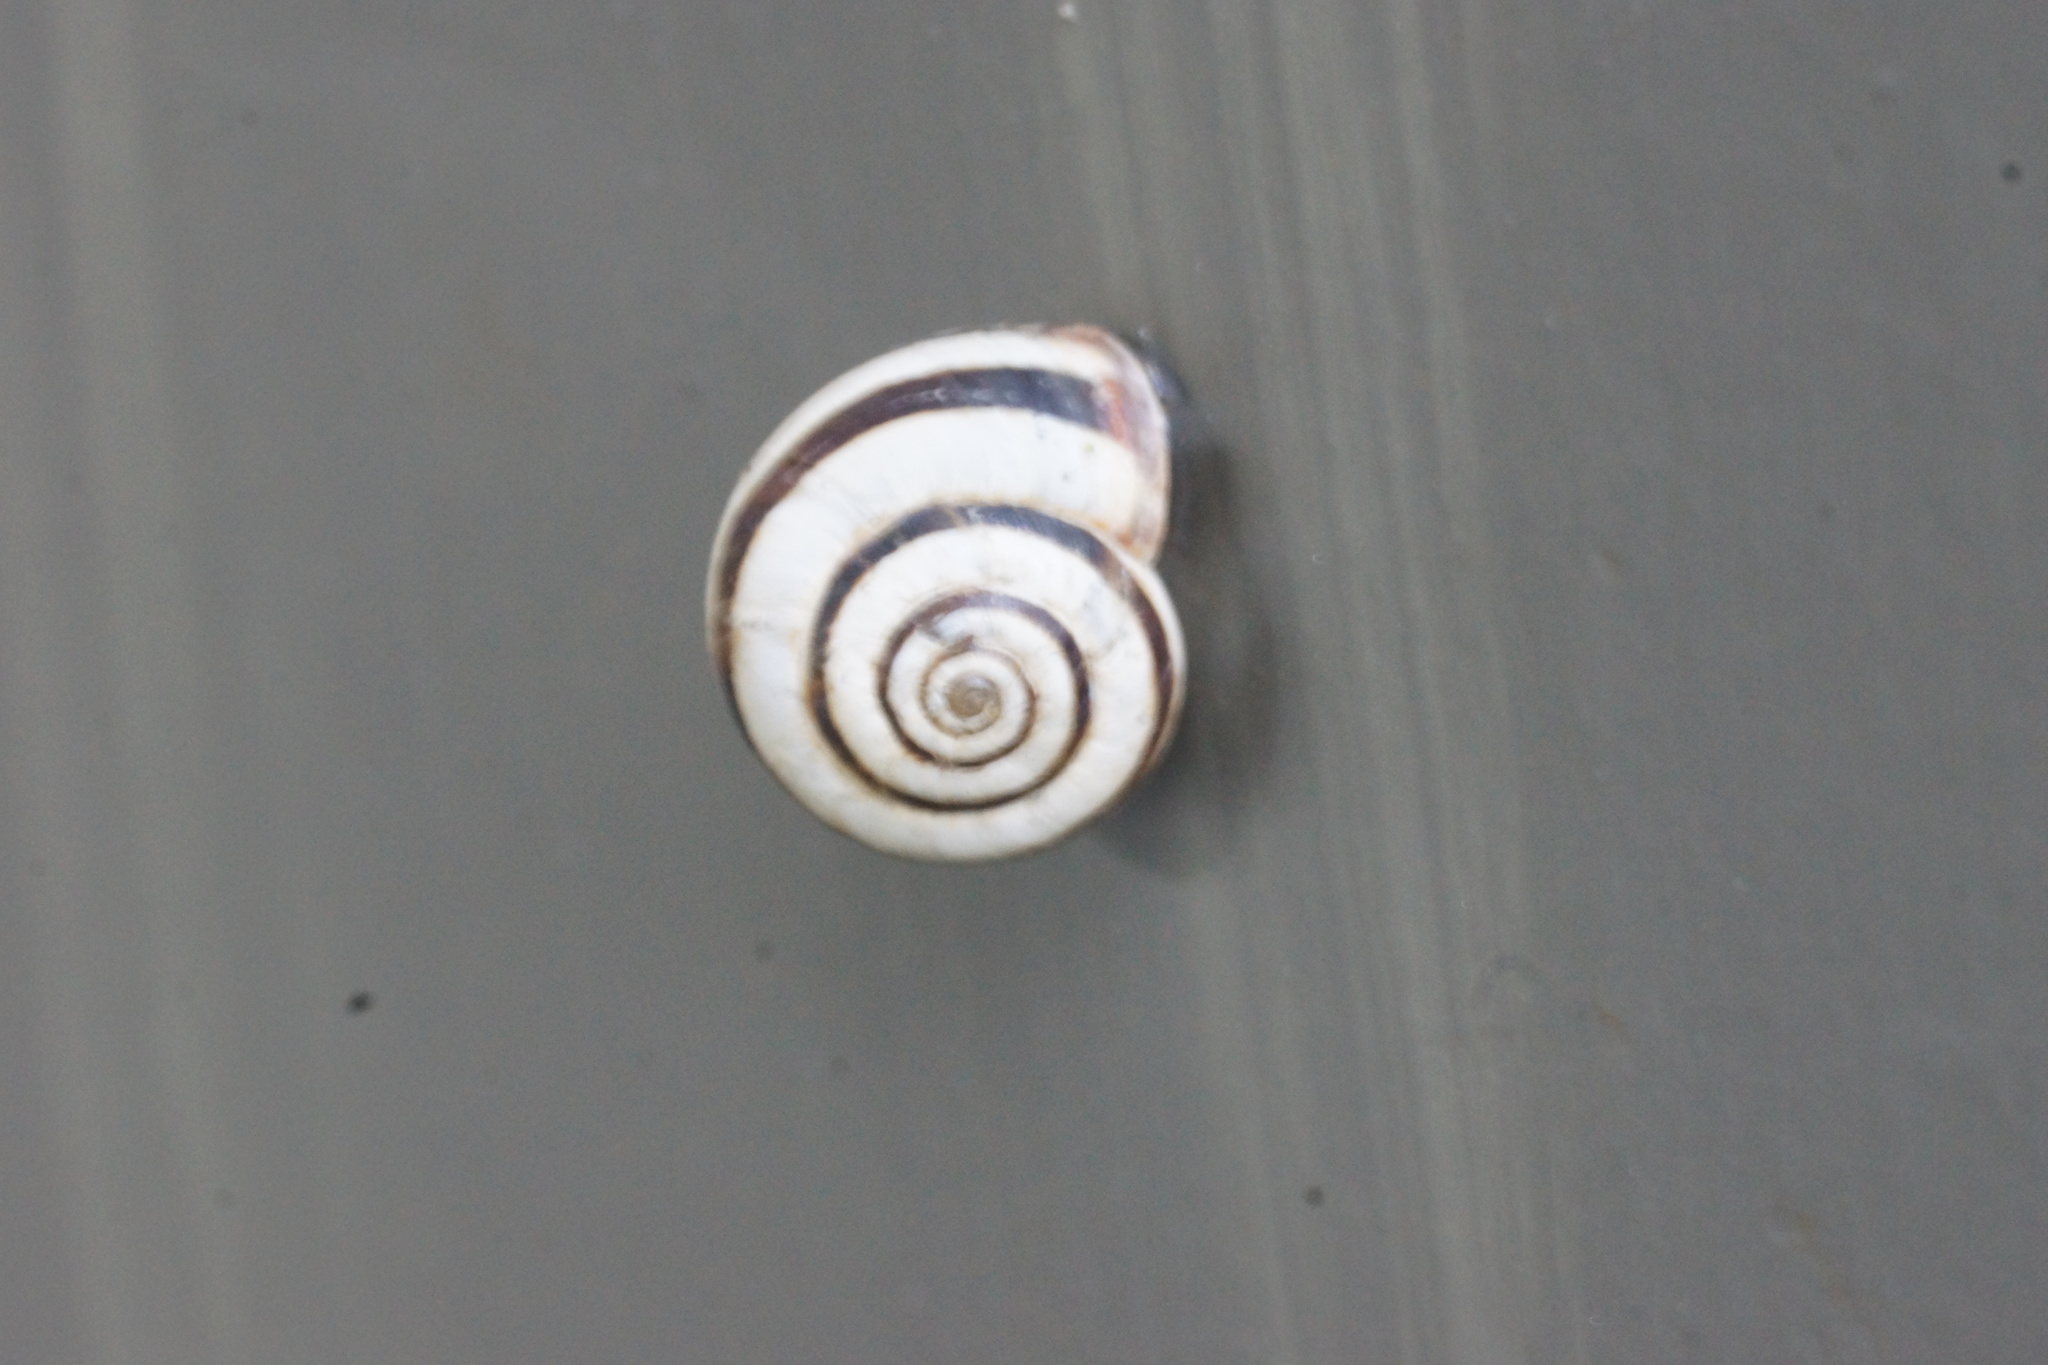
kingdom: Animalia
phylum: Mollusca
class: Gastropoda
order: Stylommatophora
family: Geomitridae
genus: Cernuella
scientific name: Cernuella virgata
